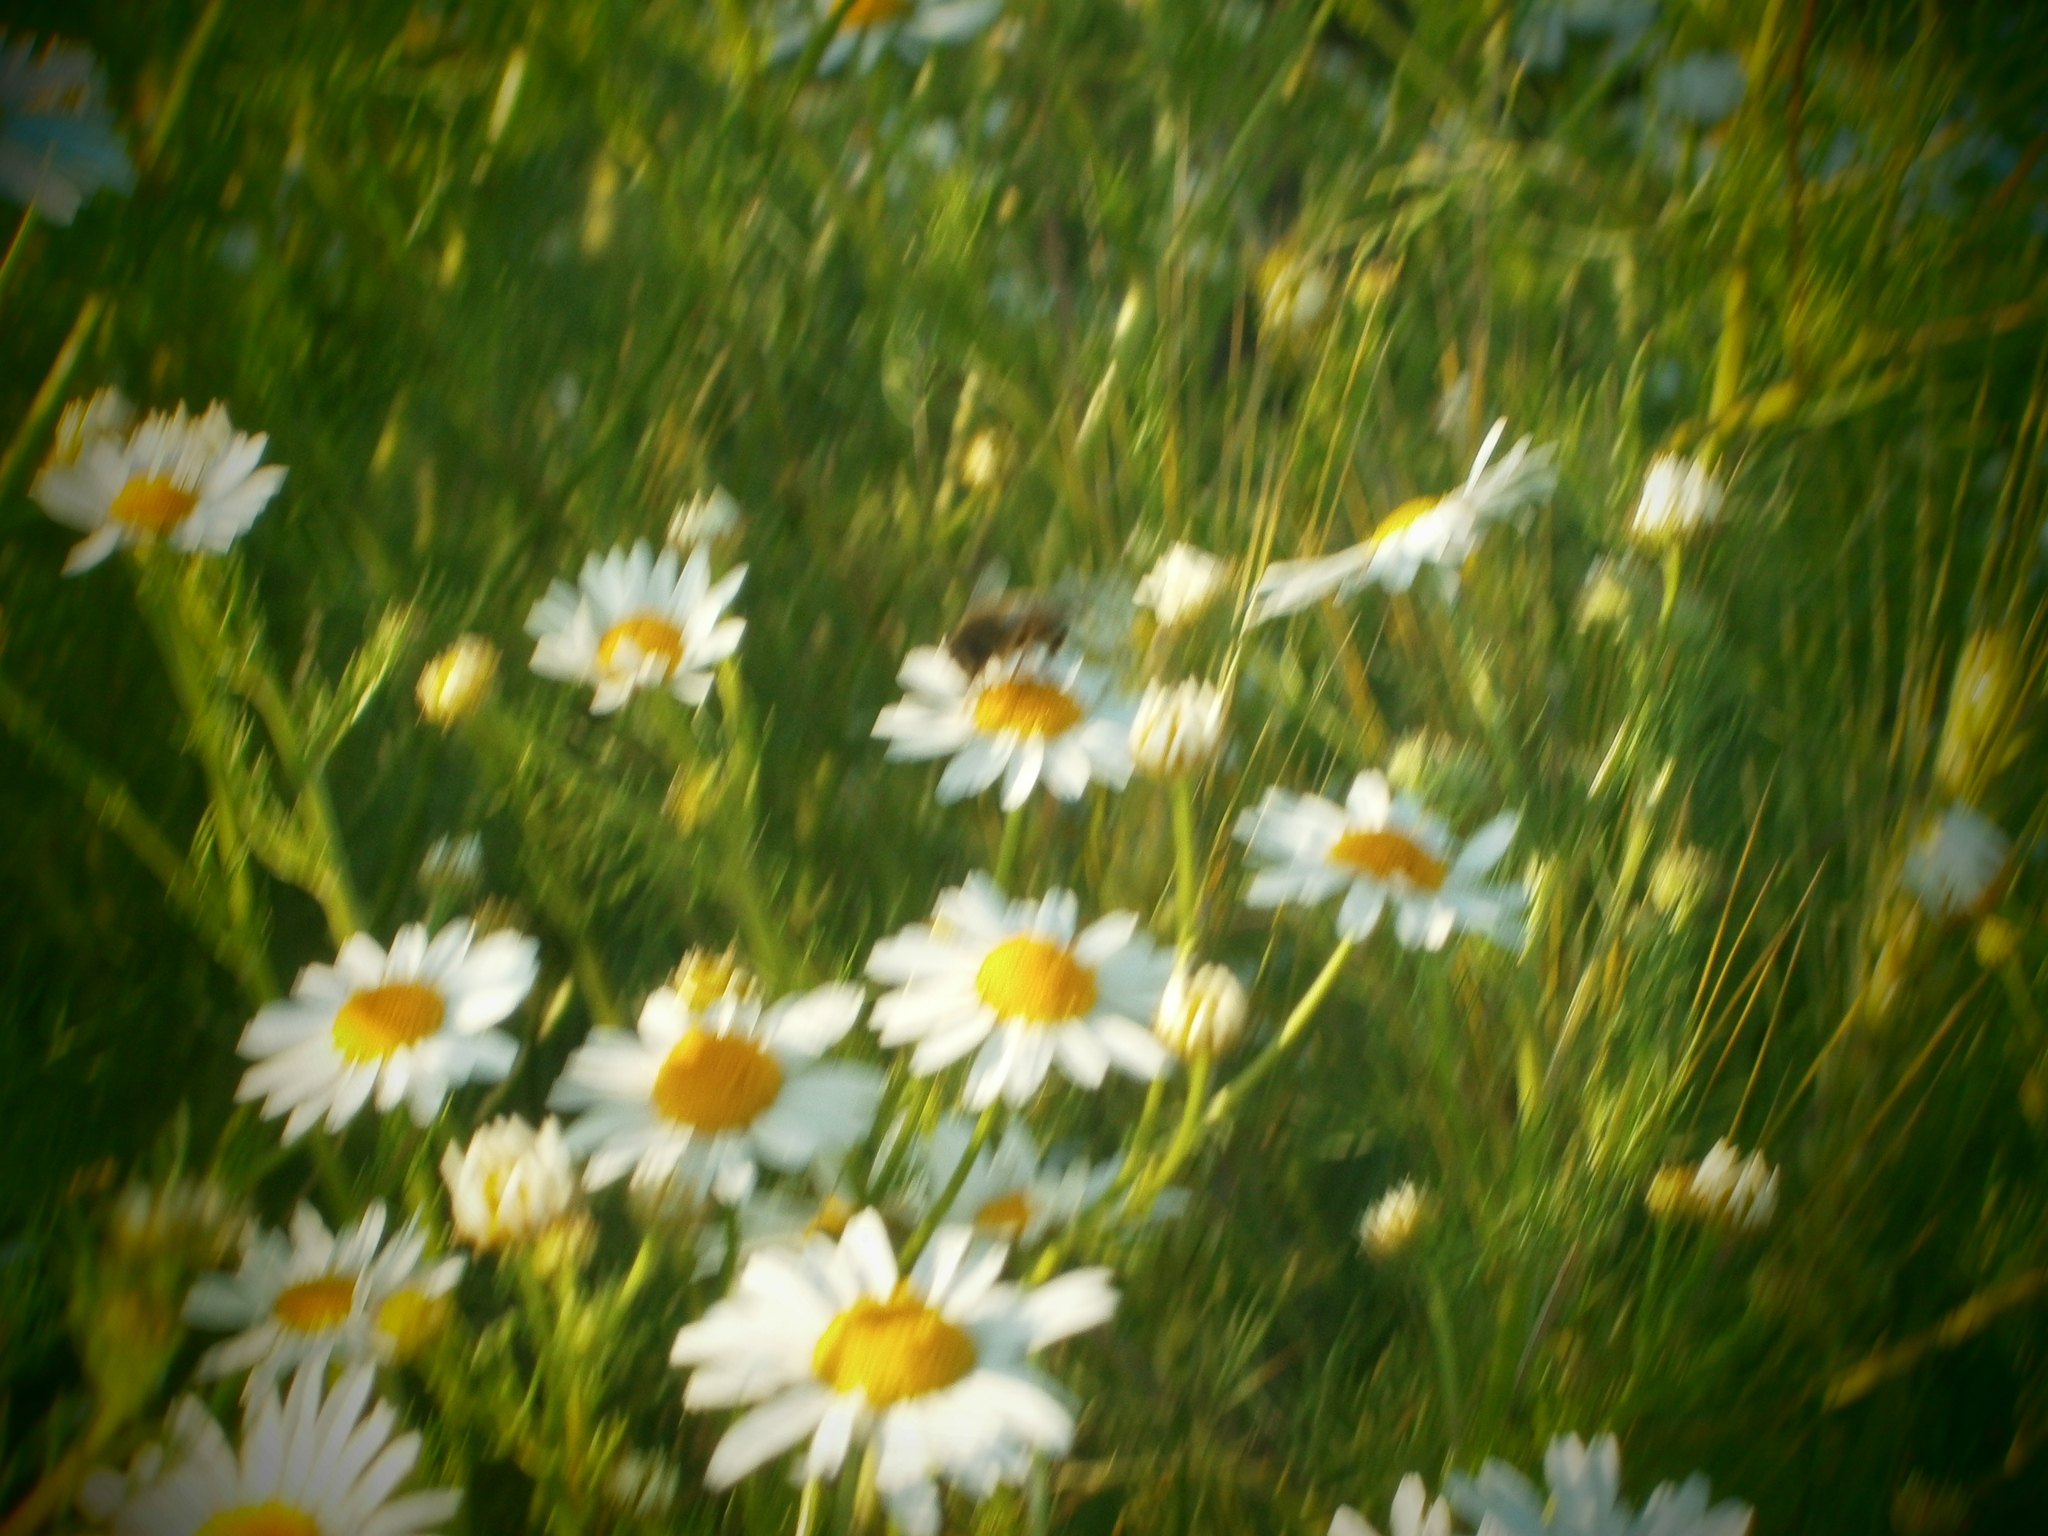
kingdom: Plantae
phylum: Tracheophyta
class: Magnoliopsida
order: Asterales
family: Asteraceae
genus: Tripleurospermum
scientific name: Tripleurospermum inodorum
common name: Scentless mayweed
